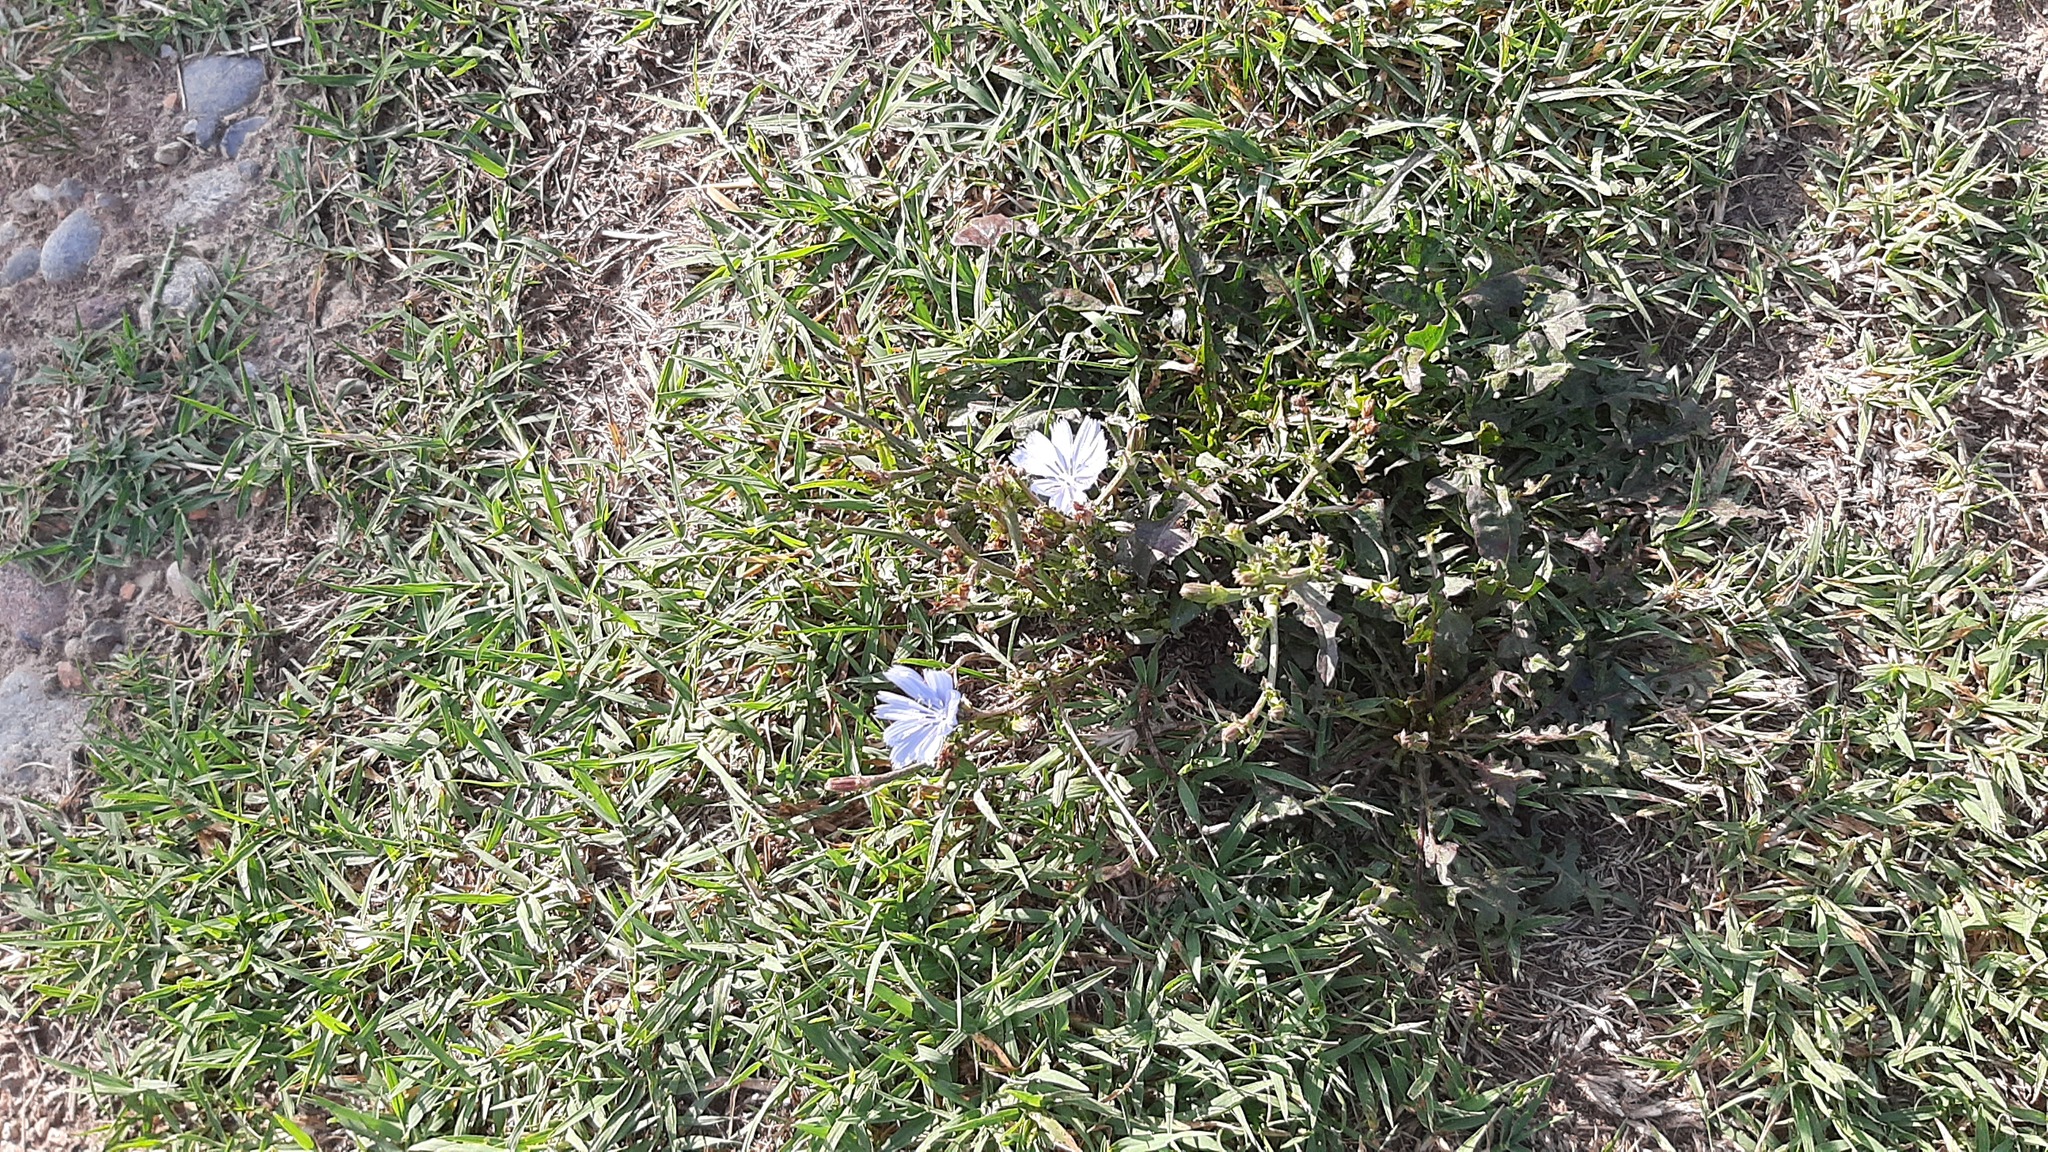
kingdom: Plantae
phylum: Tracheophyta
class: Magnoliopsida
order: Asterales
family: Asteraceae
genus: Cichorium
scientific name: Cichorium intybus
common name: Chicory
